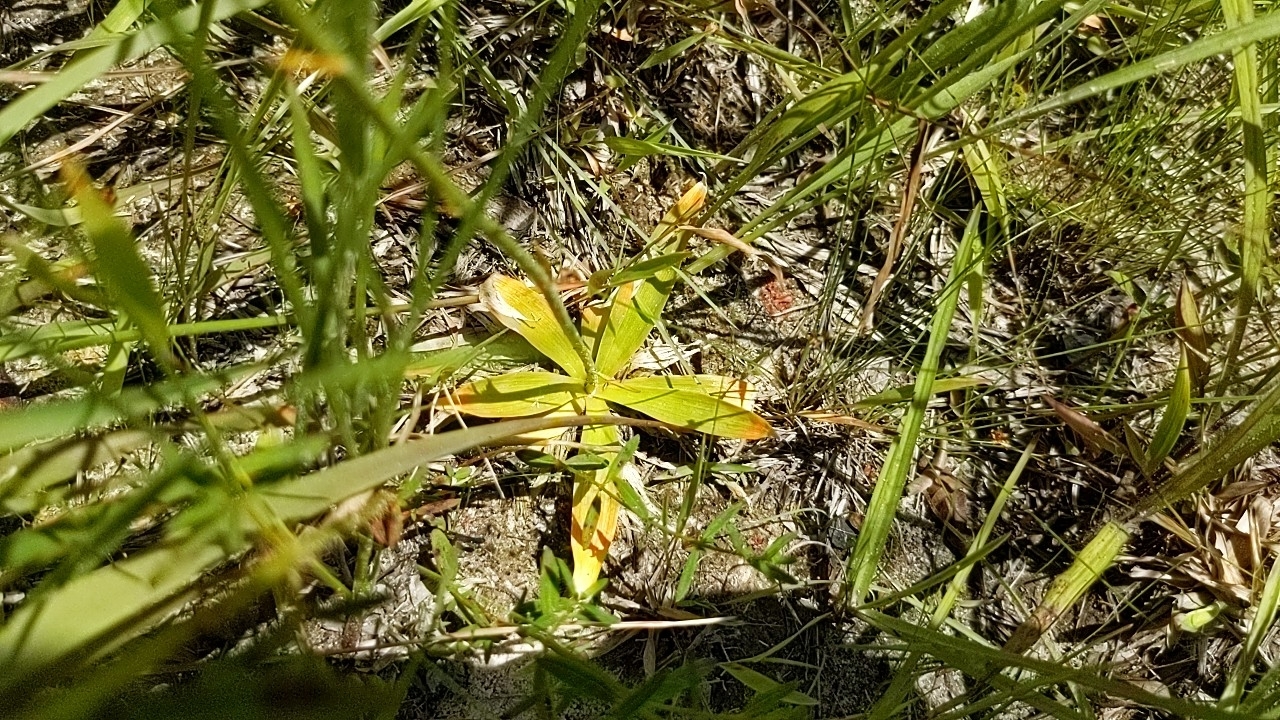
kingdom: Plantae
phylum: Tracheophyta
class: Liliopsida
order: Dioscoreales
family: Nartheciaceae
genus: Aletris
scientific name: Aletris aurea
